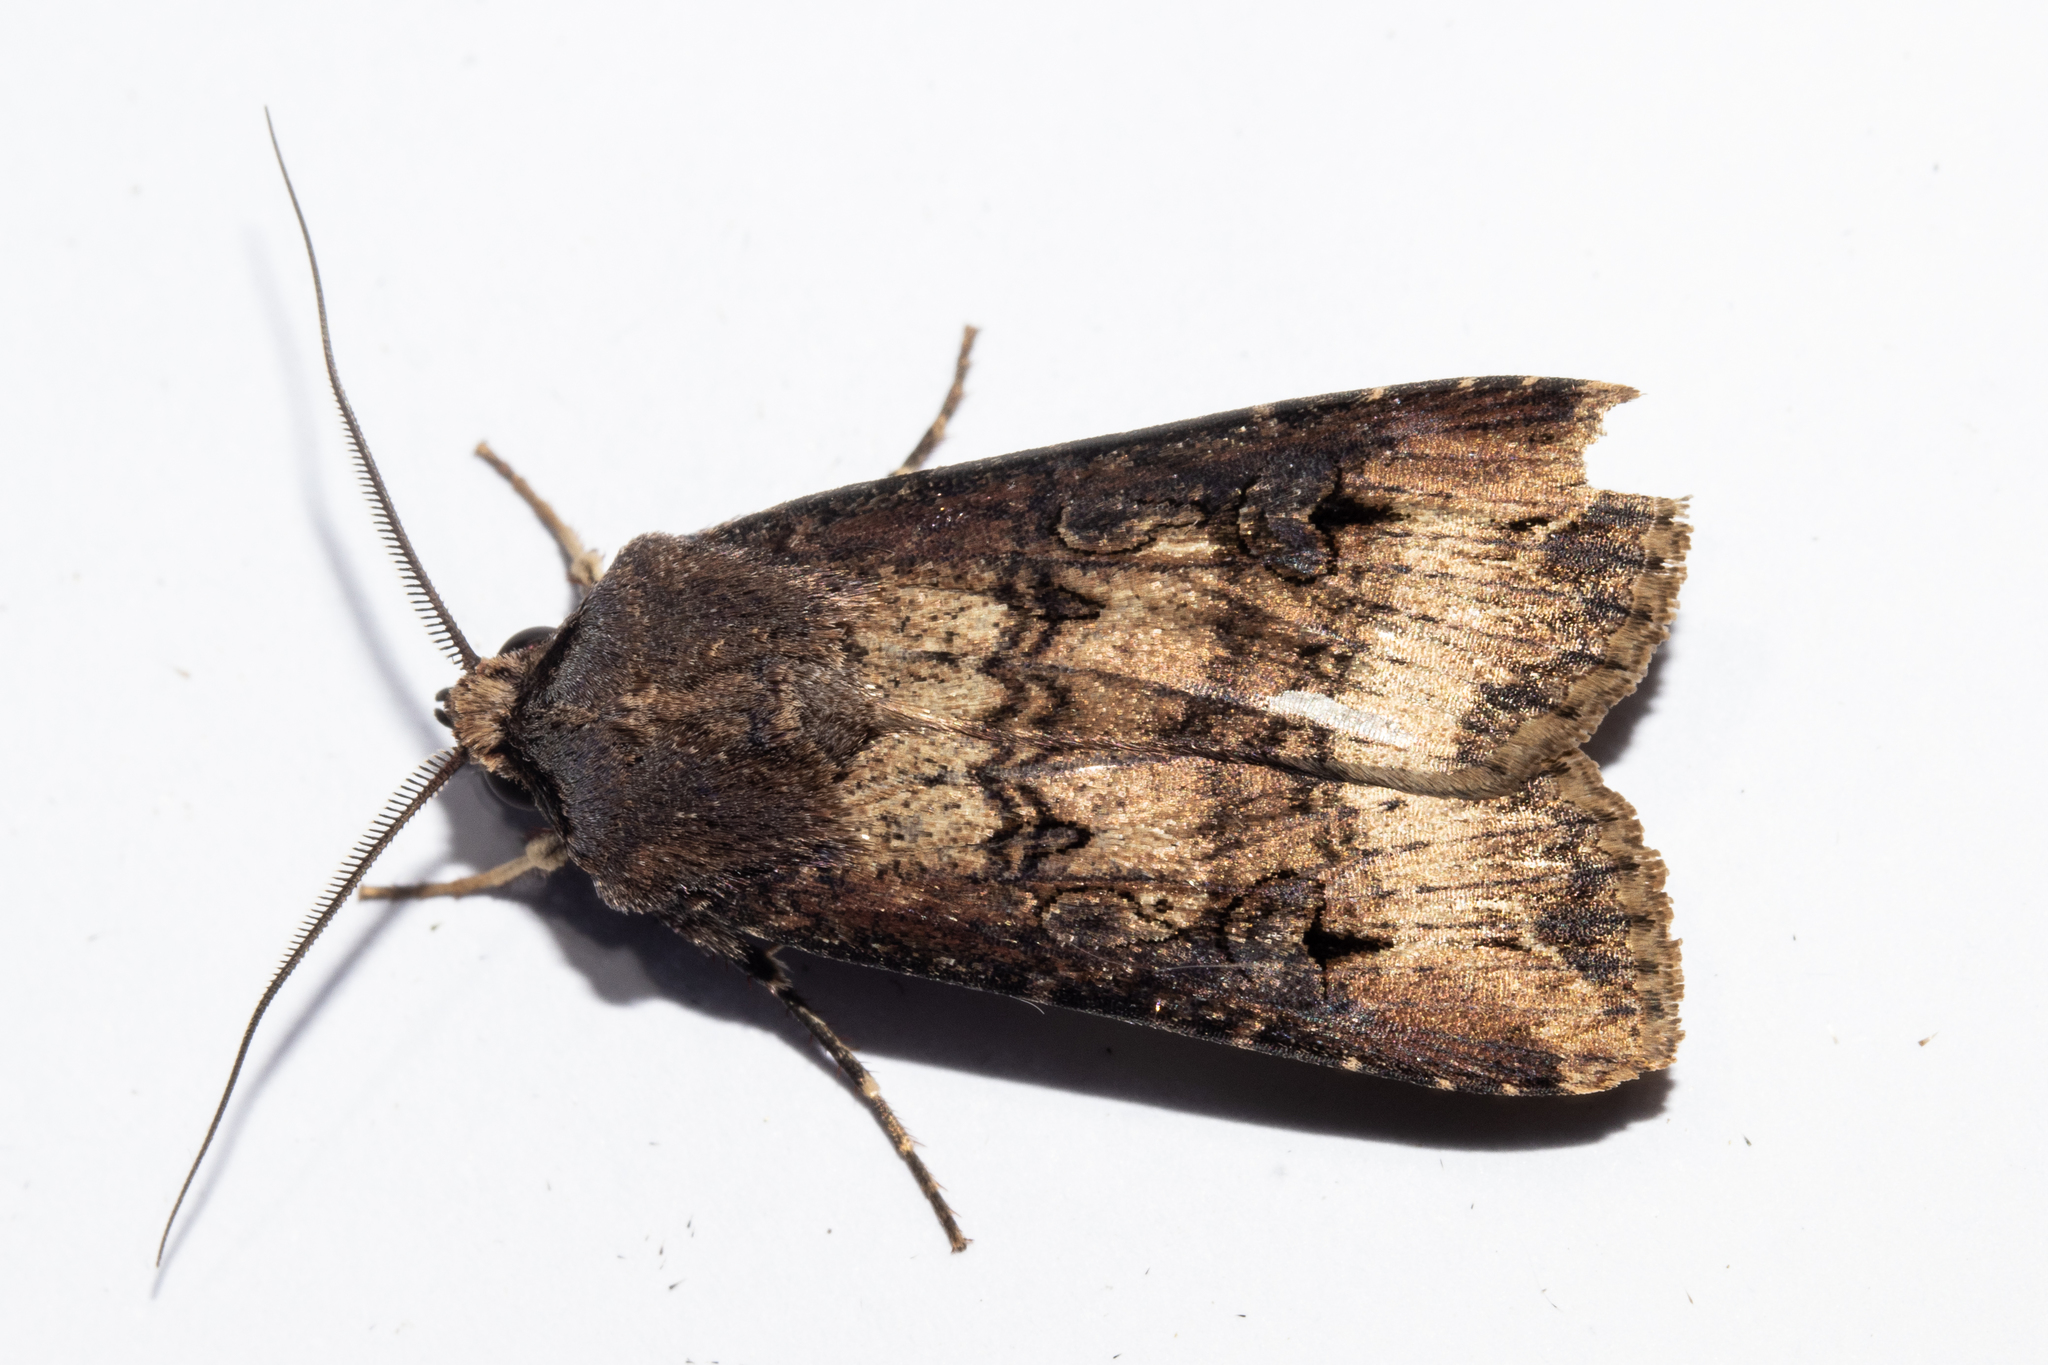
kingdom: Animalia
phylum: Arthropoda
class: Insecta
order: Lepidoptera
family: Noctuidae
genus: Agrotis
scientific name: Agrotis ipsilon
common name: Dark sword-grass
